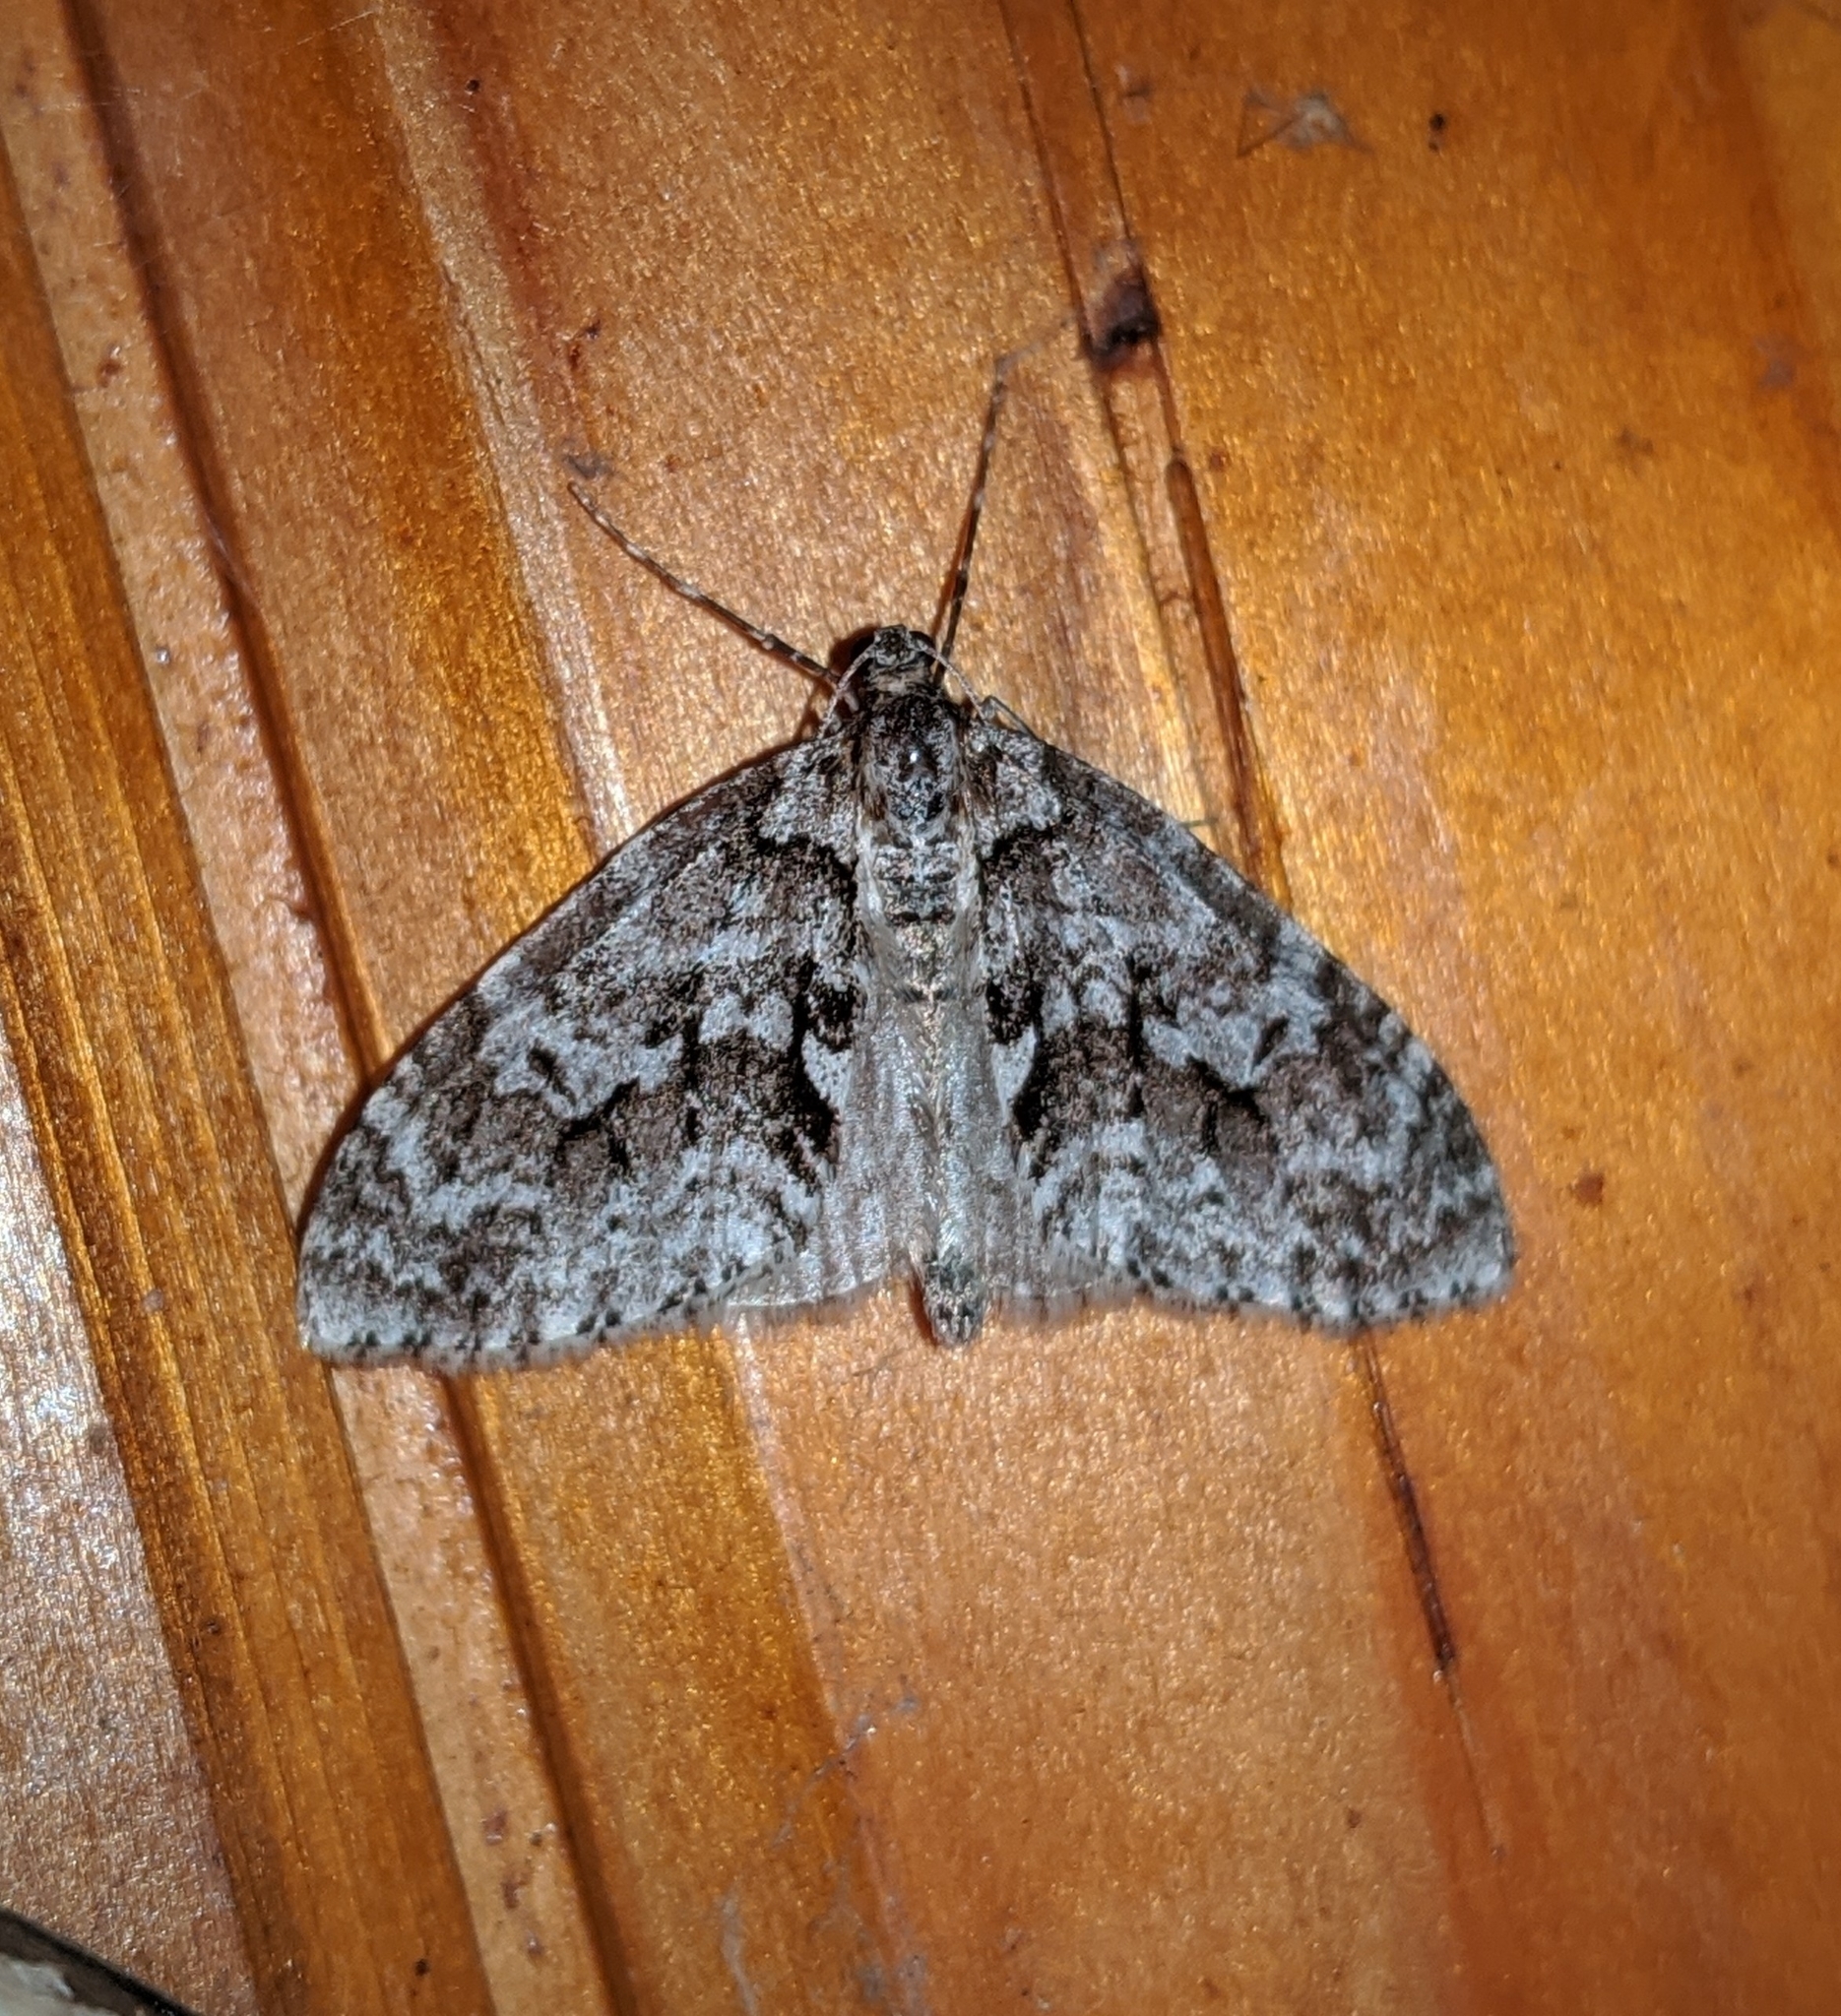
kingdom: Animalia
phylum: Arthropoda
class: Insecta
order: Lepidoptera
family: Geometridae
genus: Cladara
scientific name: Cladara limitaria
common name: Mottled gray carpet
